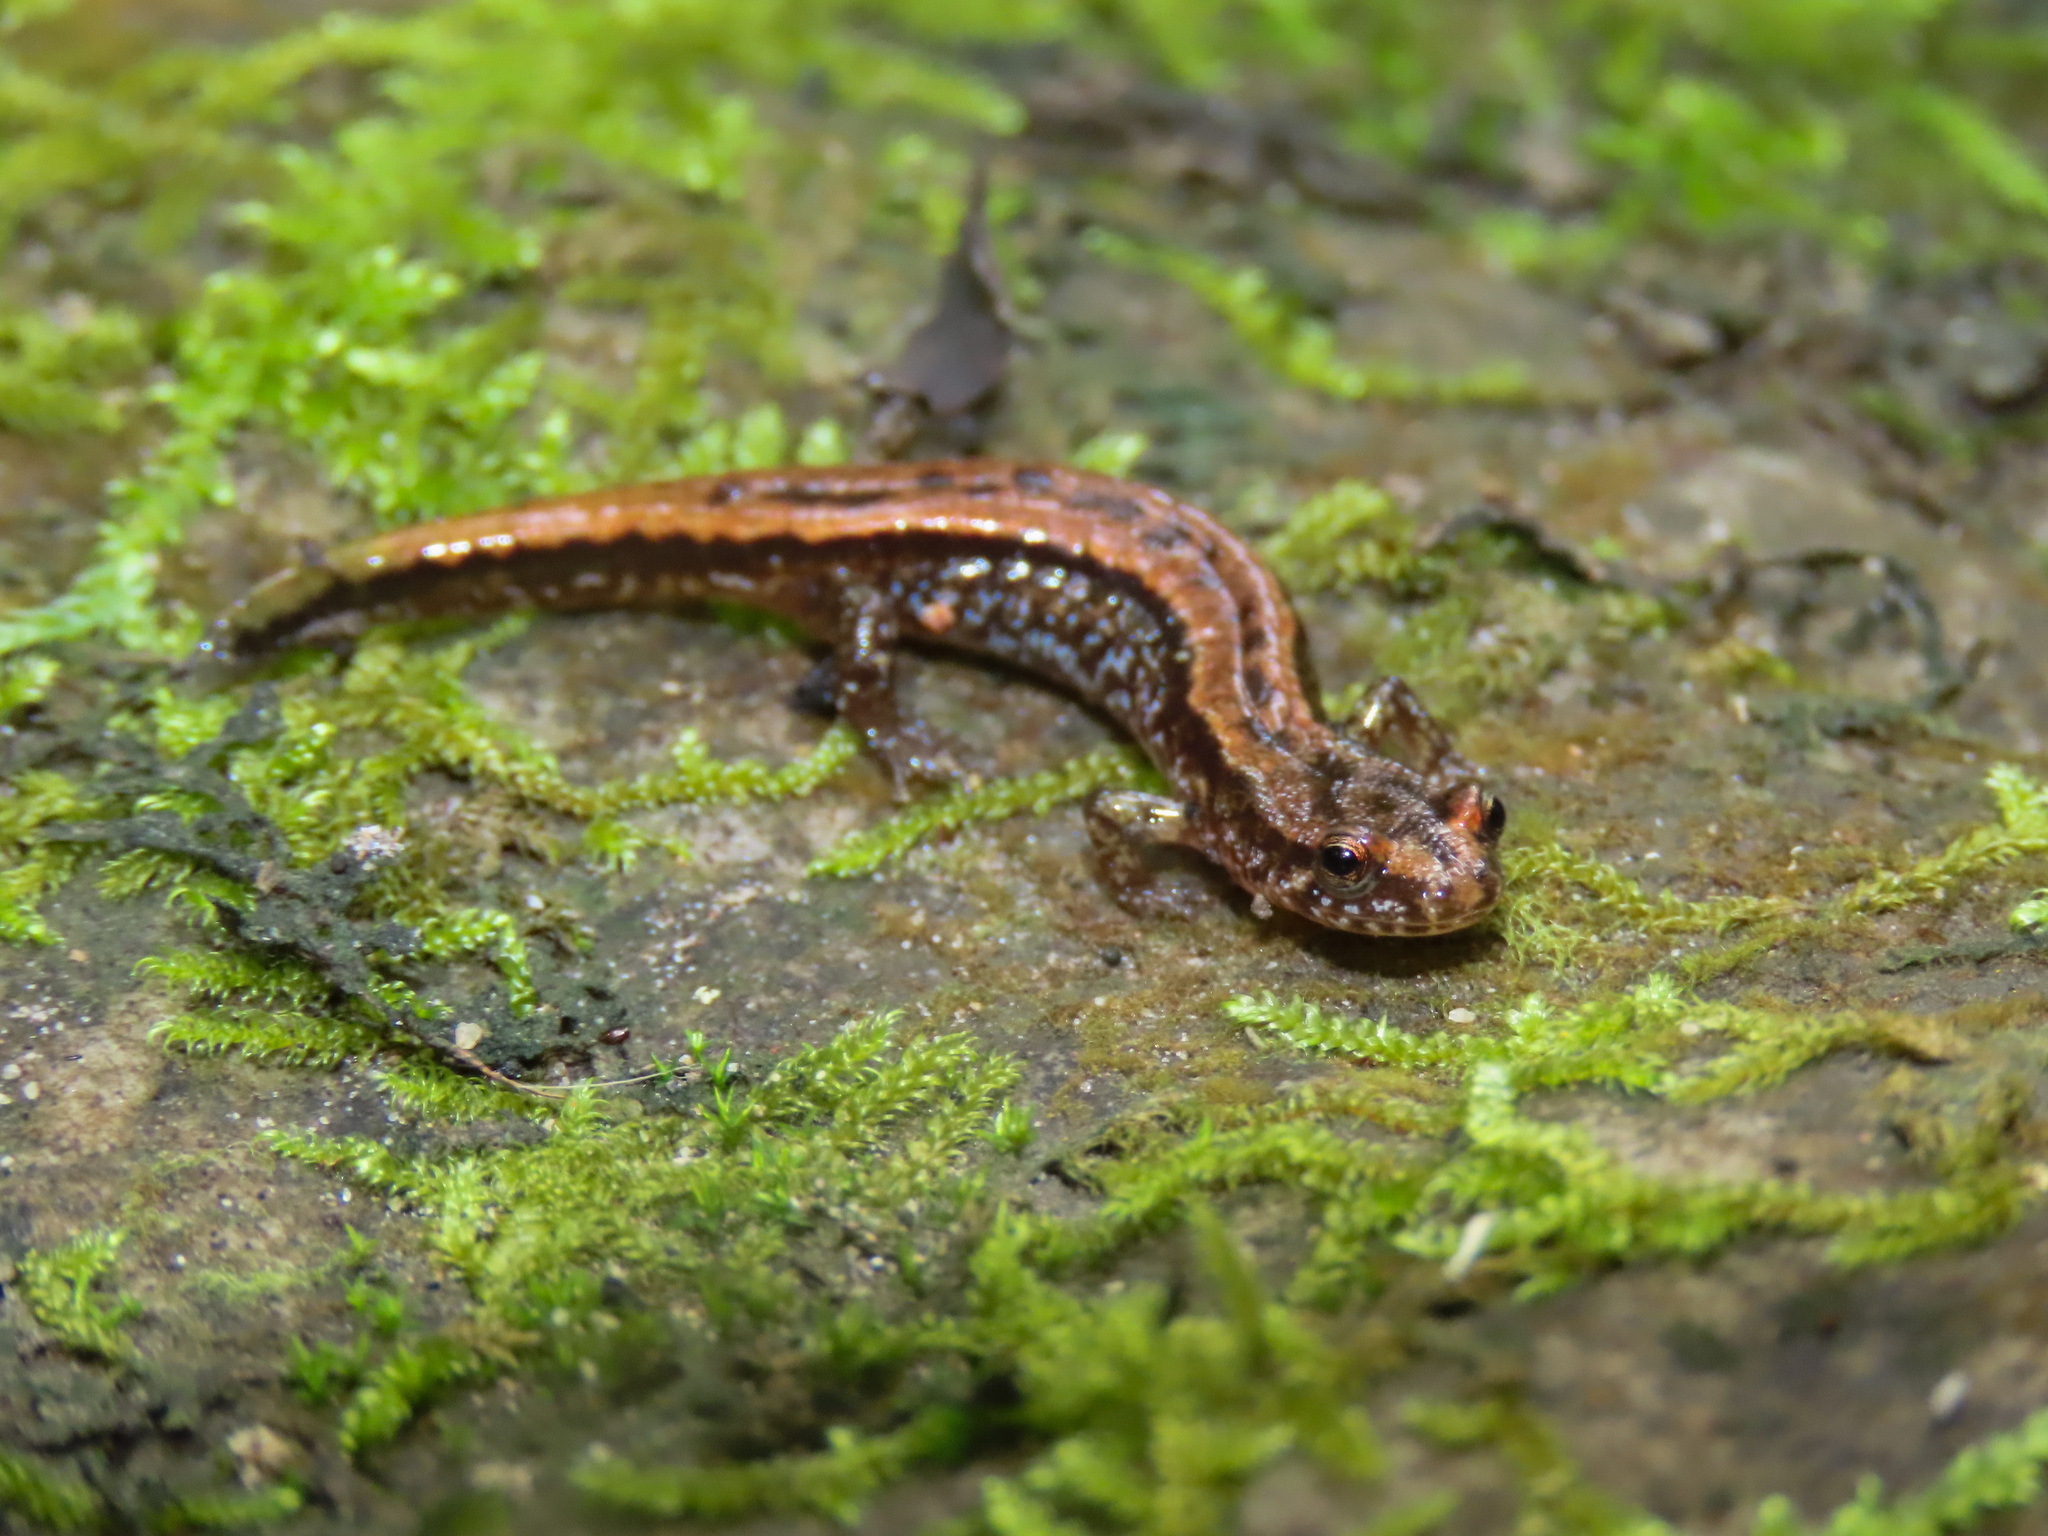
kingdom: Animalia
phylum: Chordata
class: Amphibia
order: Caudata
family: Plethodontidae
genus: Desmognathus
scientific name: Desmognathus ochrophaeus
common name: Allegheny mountain dusky salamander
